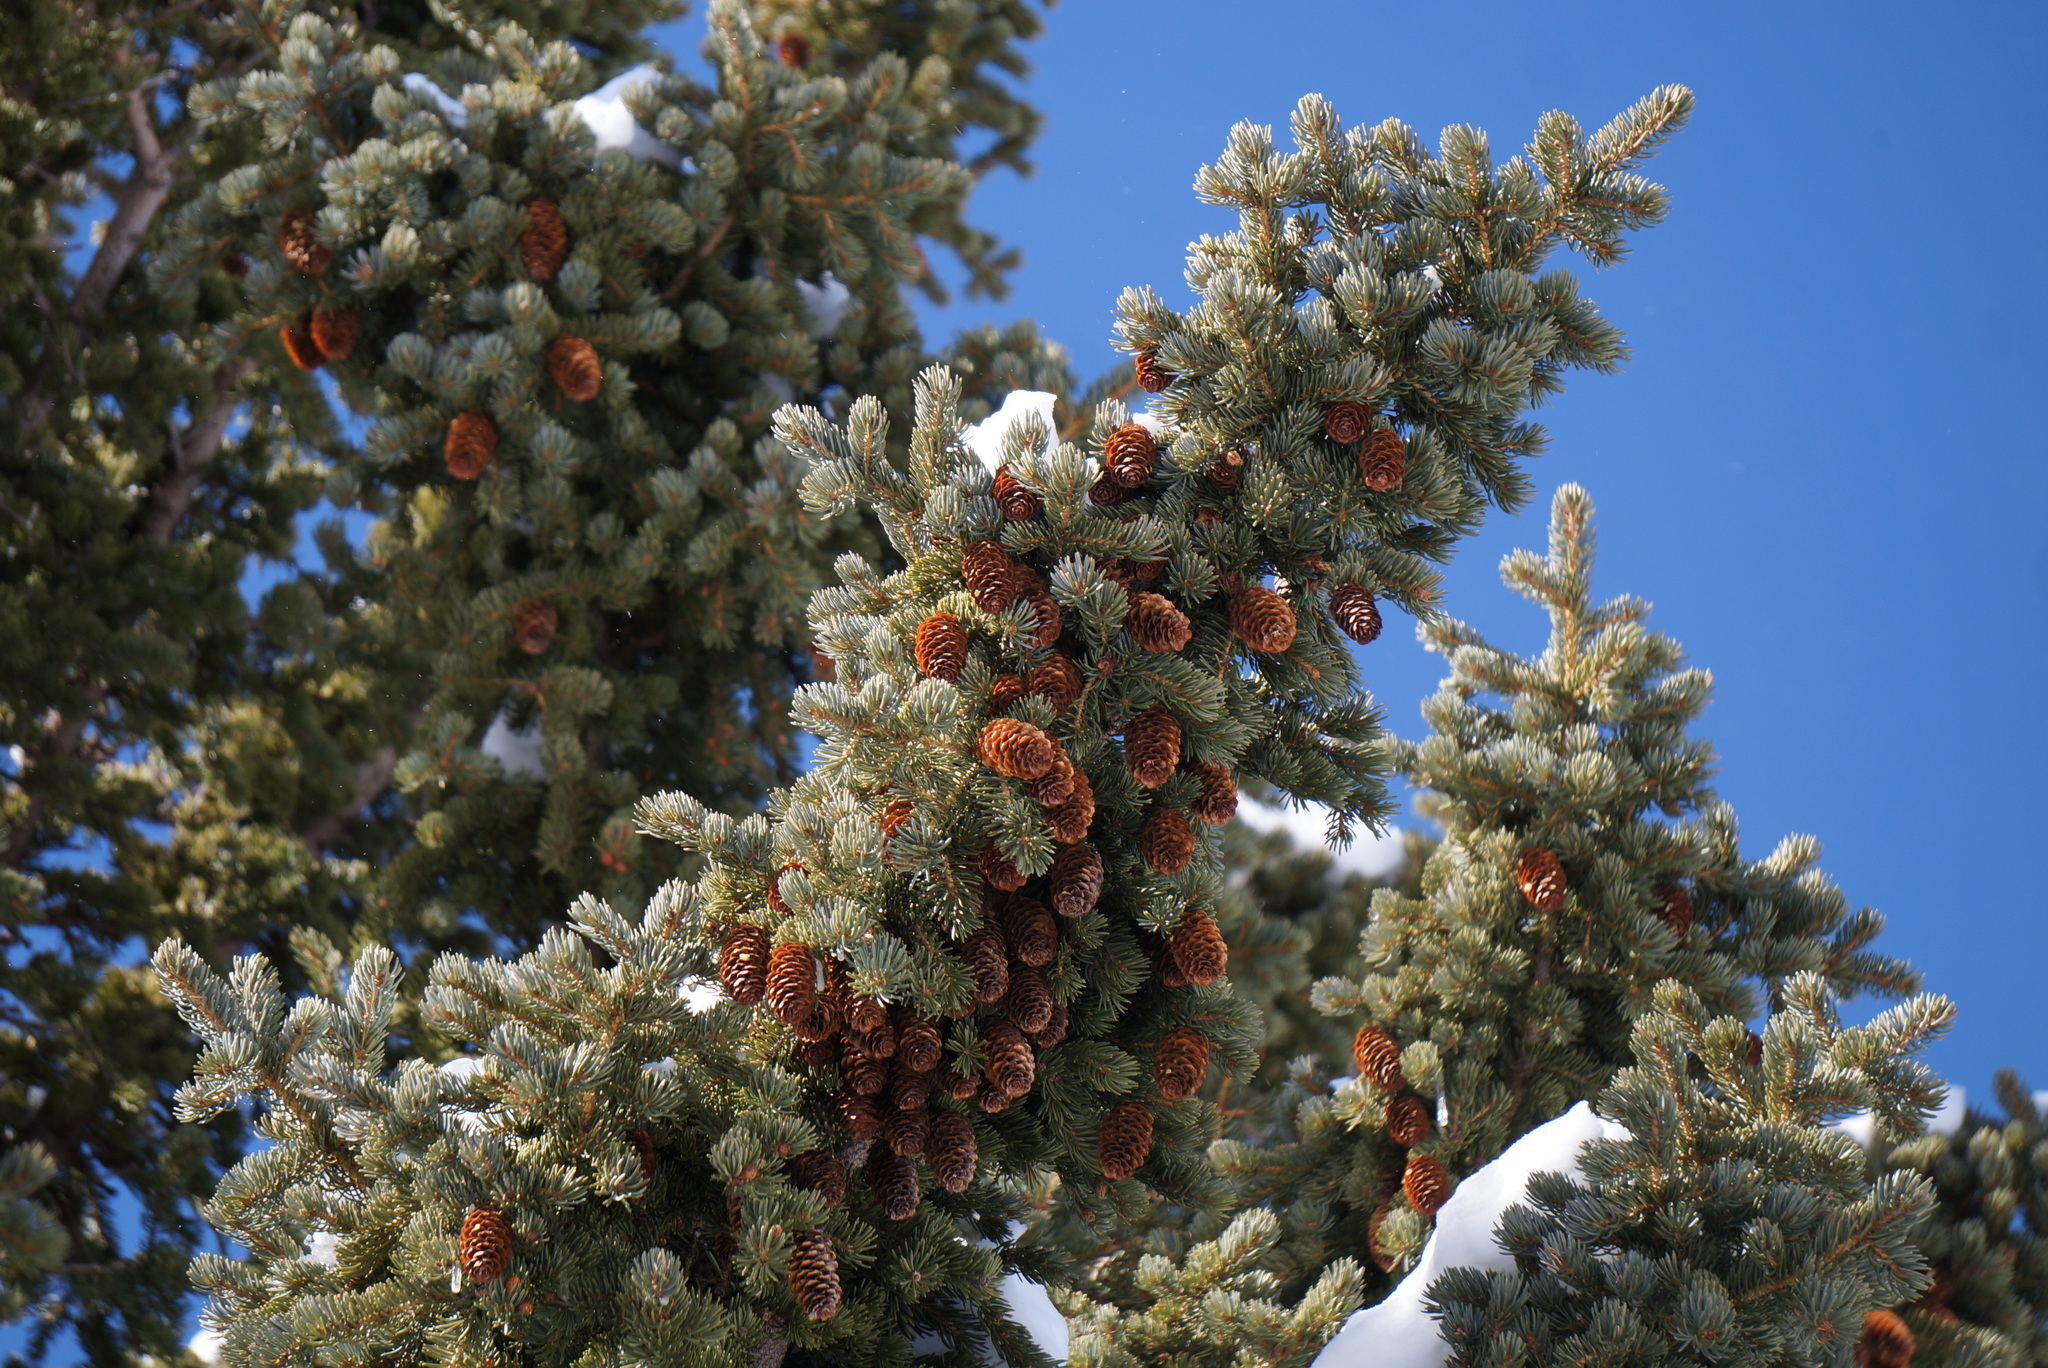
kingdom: Plantae
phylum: Tracheophyta
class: Pinopsida
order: Pinales
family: Pinaceae
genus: Picea
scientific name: Picea engelmannii
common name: Engelmann spruce
